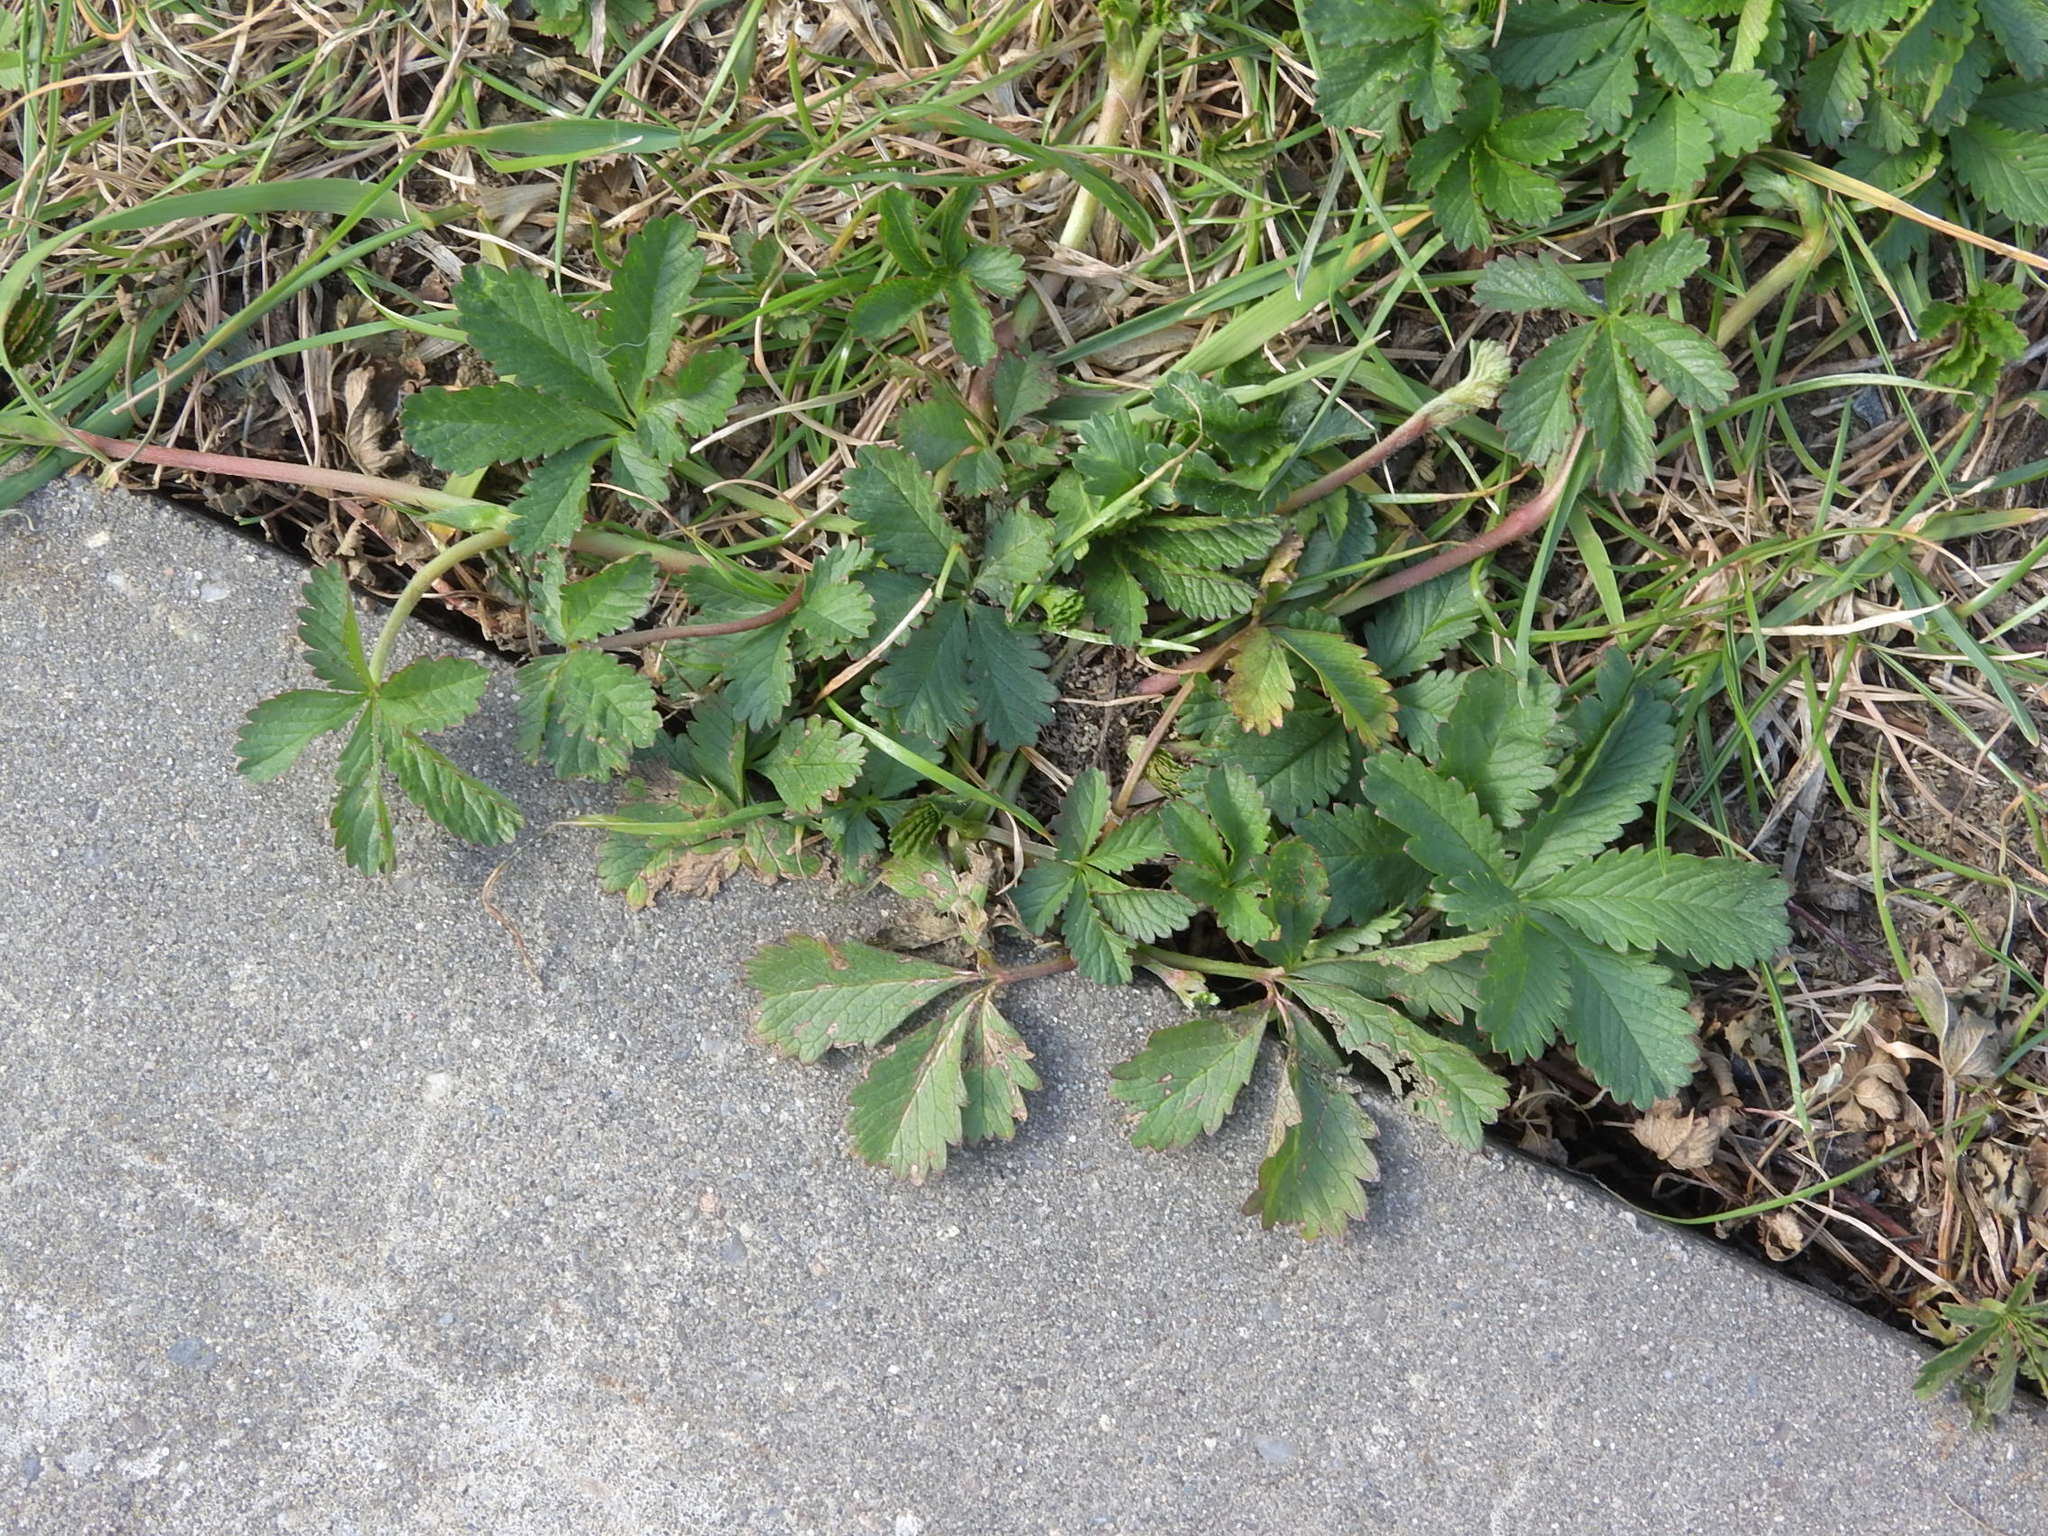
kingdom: Plantae
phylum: Tracheophyta
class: Magnoliopsida
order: Rosales
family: Rosaceae
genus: Potentilla
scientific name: Potentilla reptans
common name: Creeping cinquefoil
